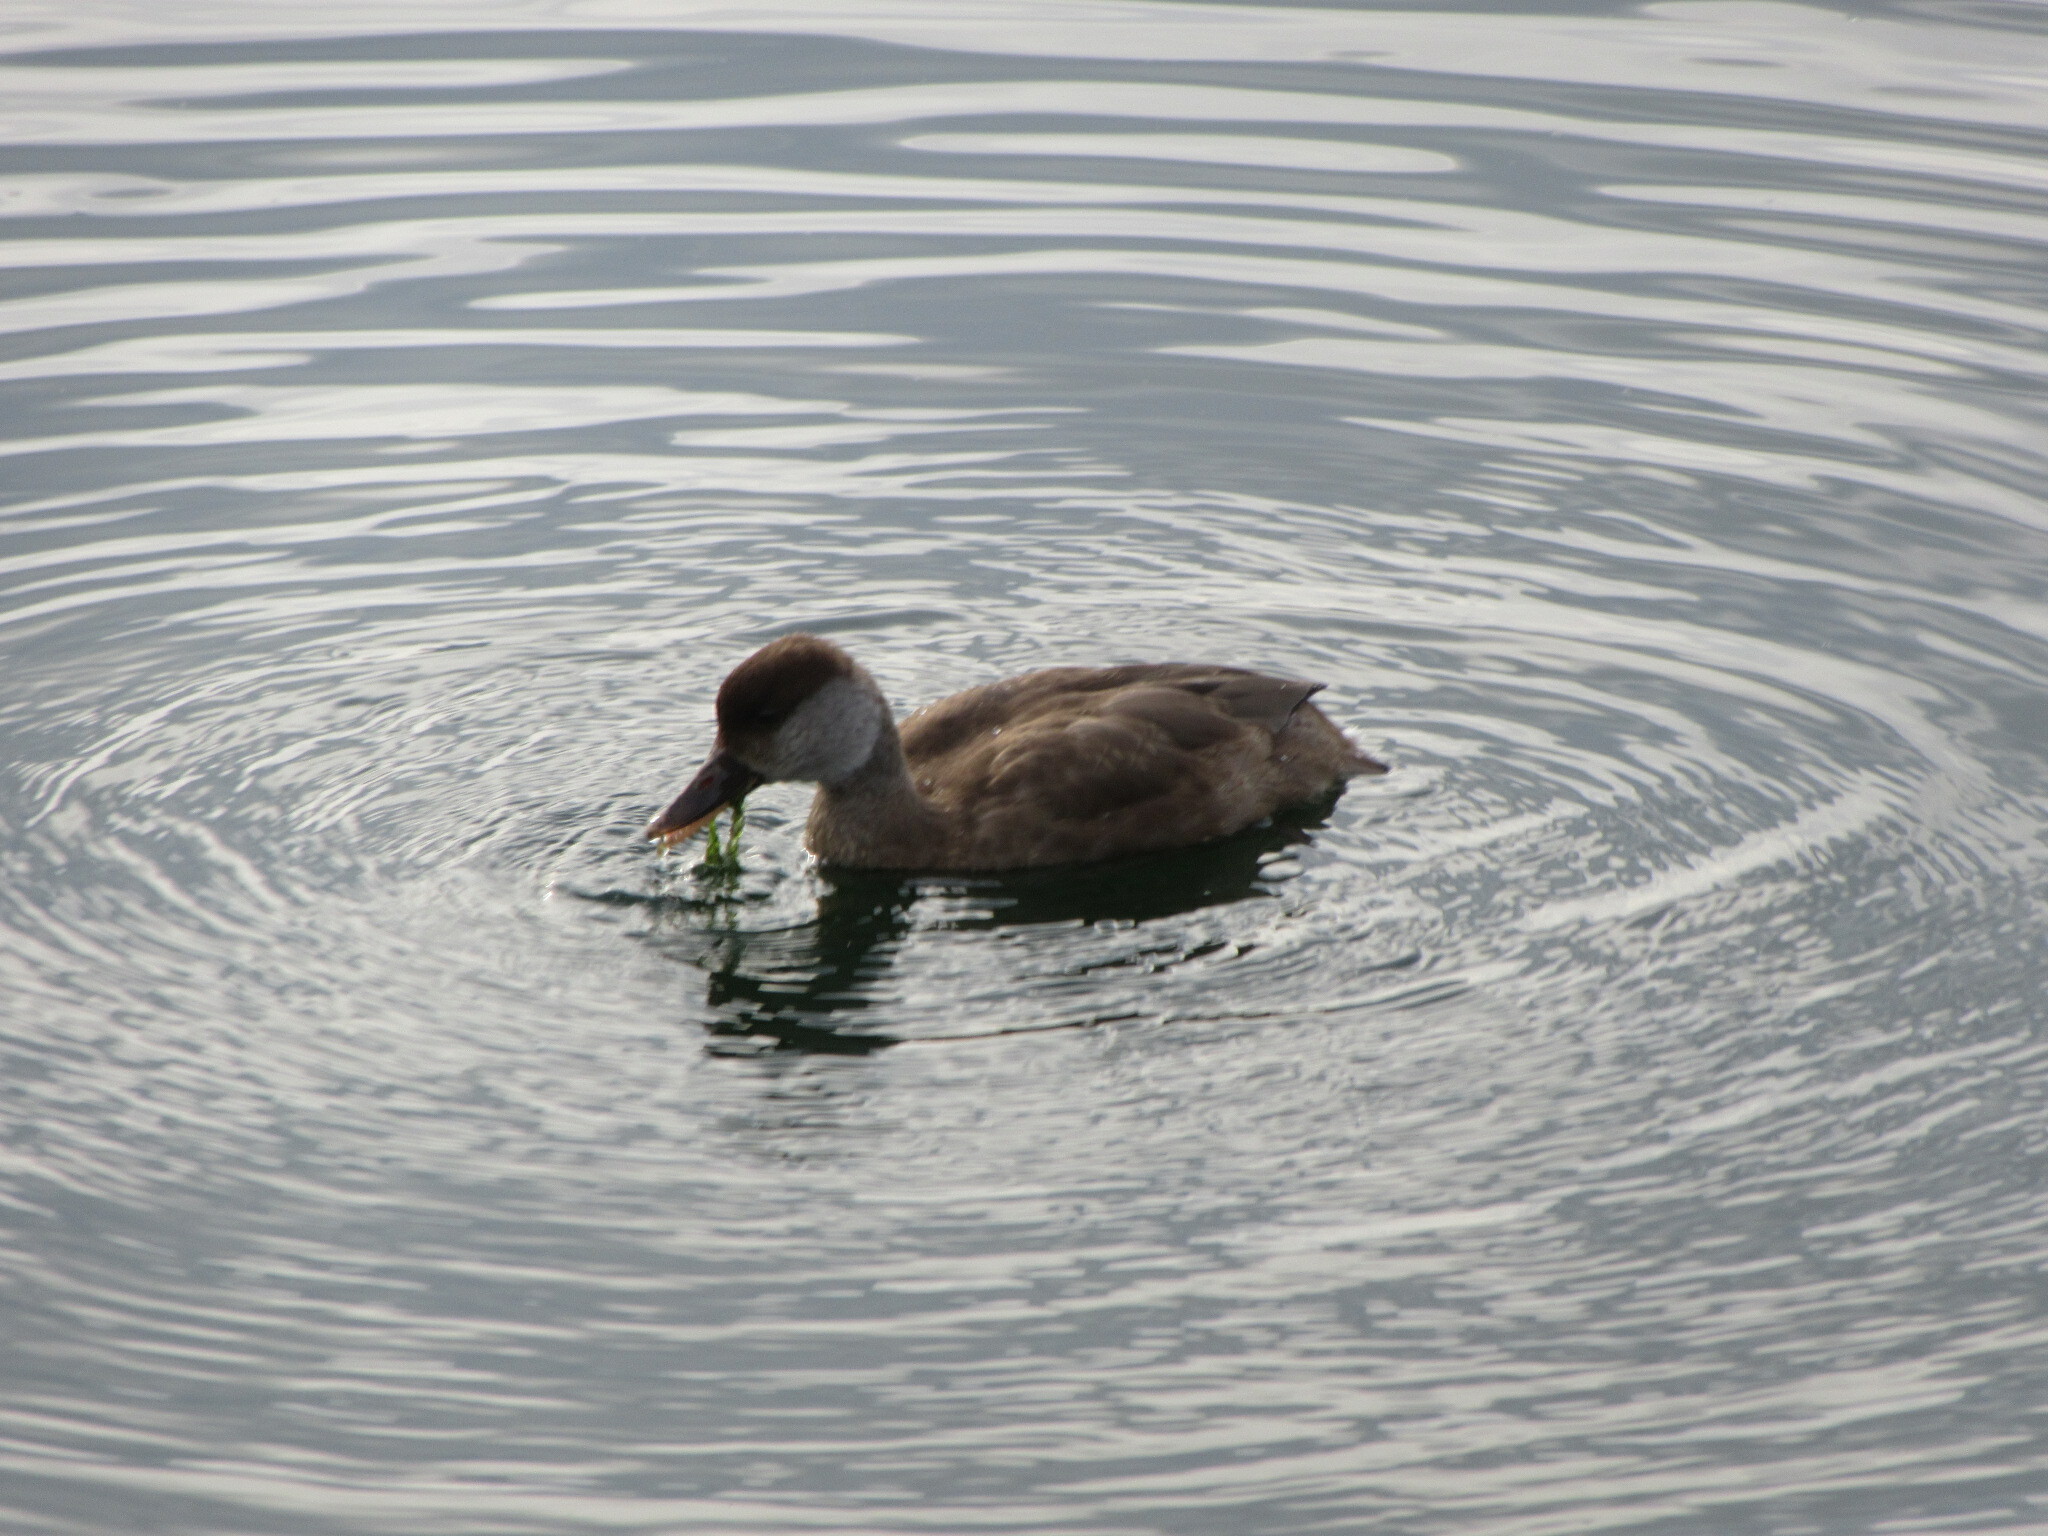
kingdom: Animalia
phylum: Chordata
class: Aves
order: Anseriformes
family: Anatidae
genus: Netta
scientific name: Netta rufina
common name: Red-crested pochard
